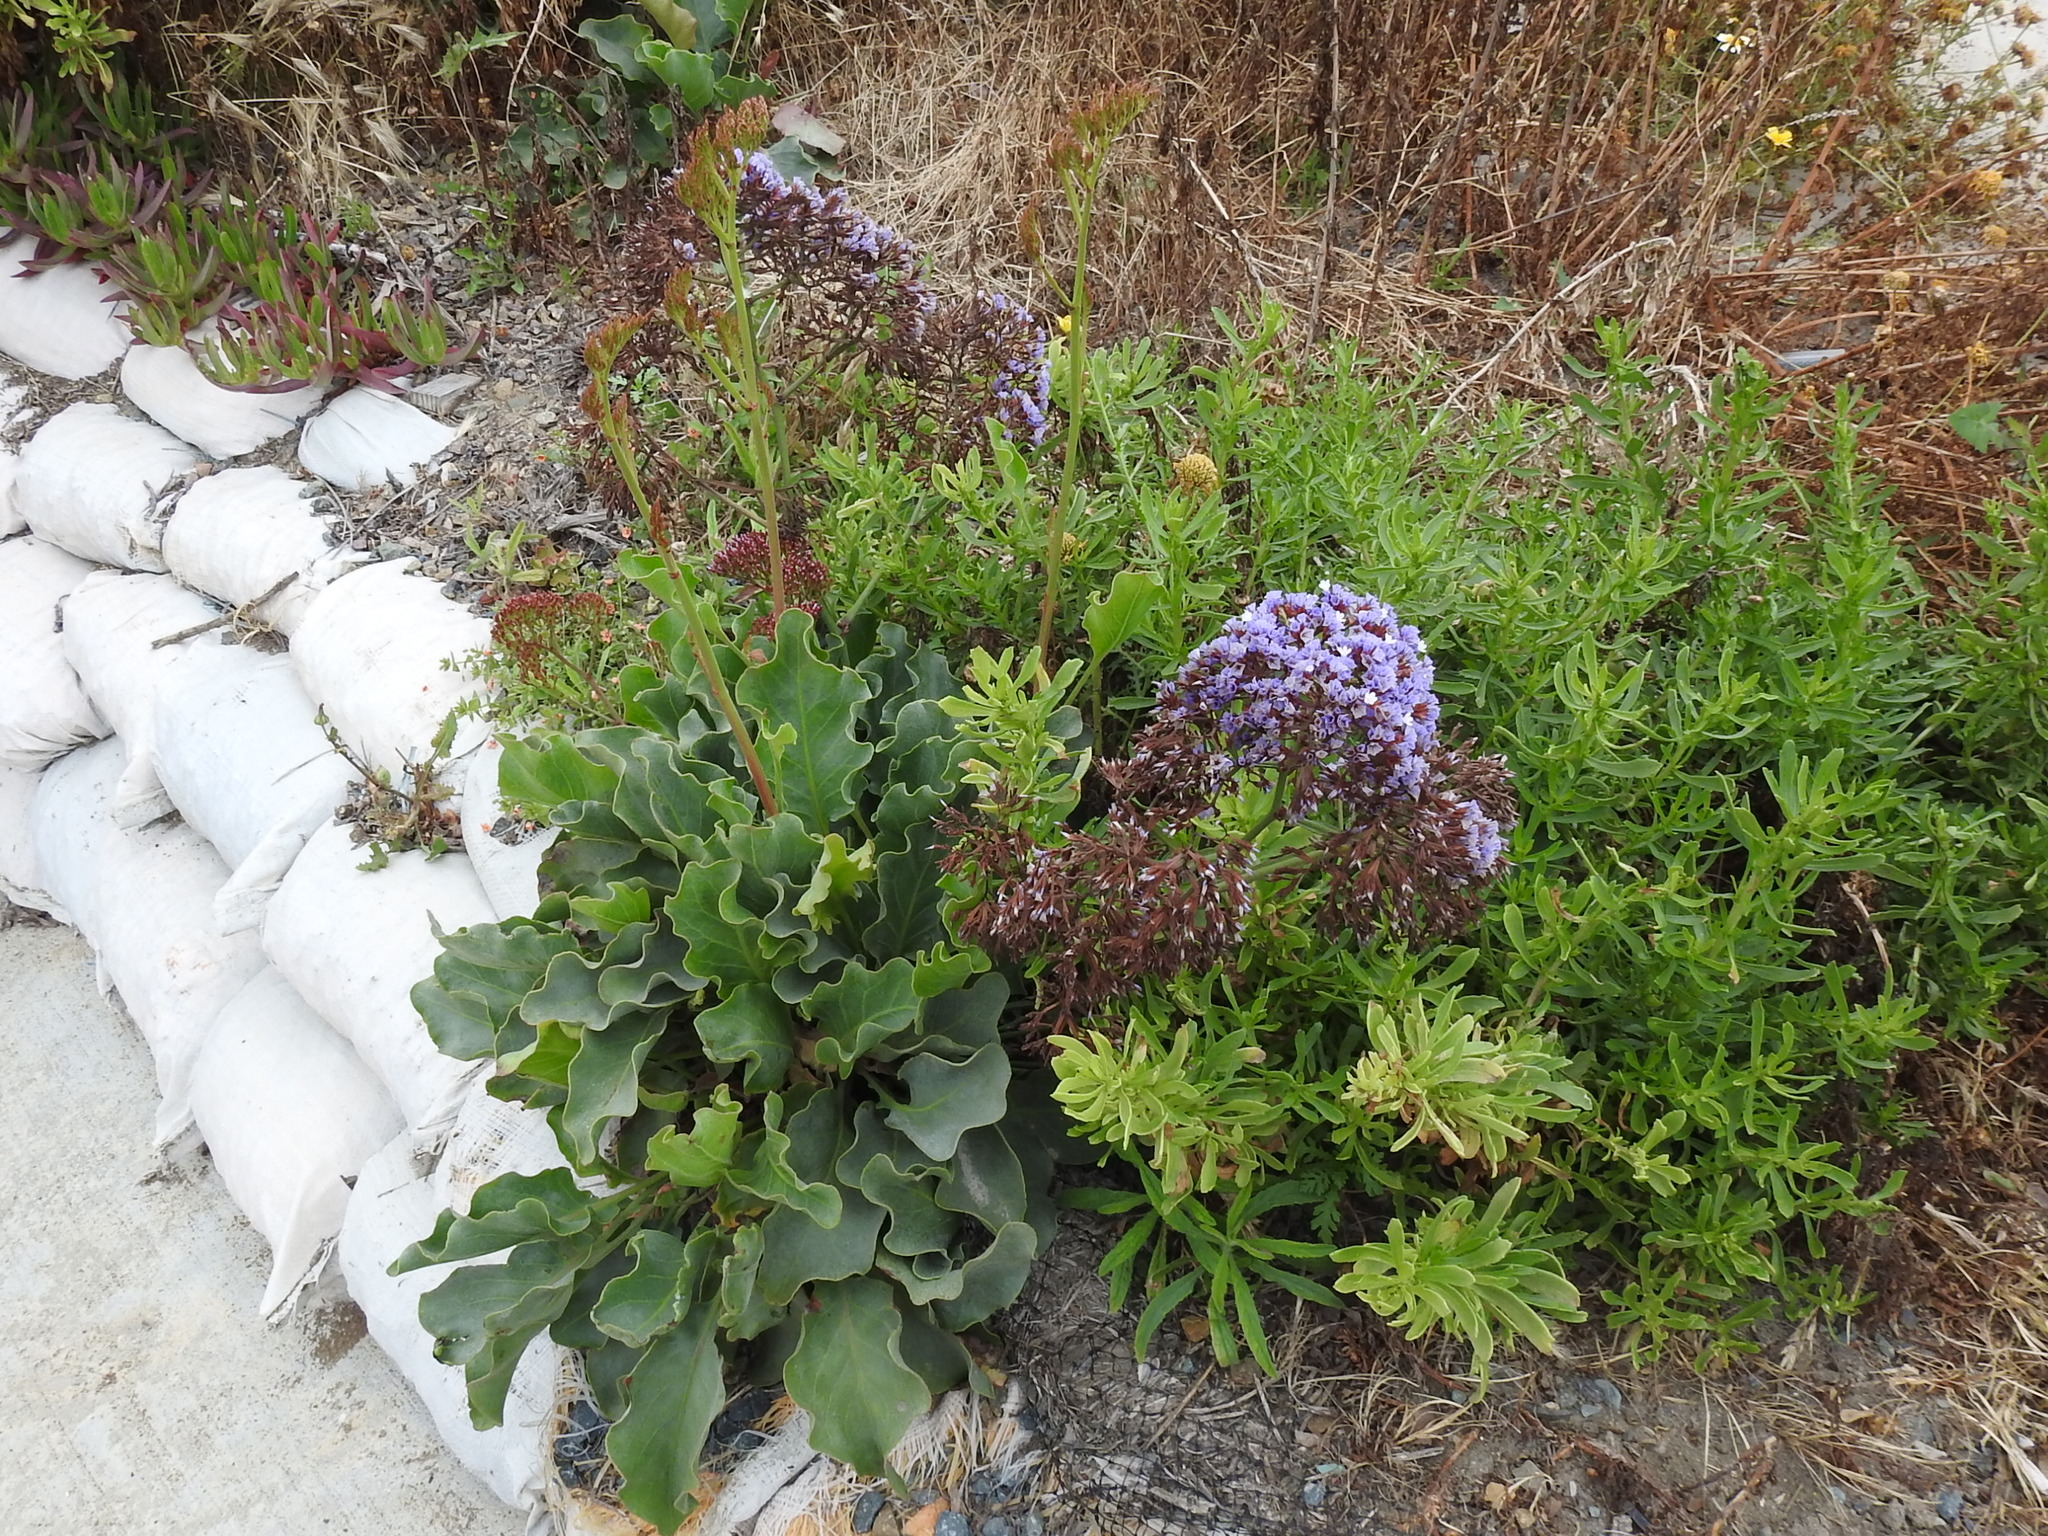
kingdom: Plantae
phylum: Tracheophyta
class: Magnoliopsida
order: Caryophyllales
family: Plumbaginaceae
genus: Limonium
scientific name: Limonium perezii
